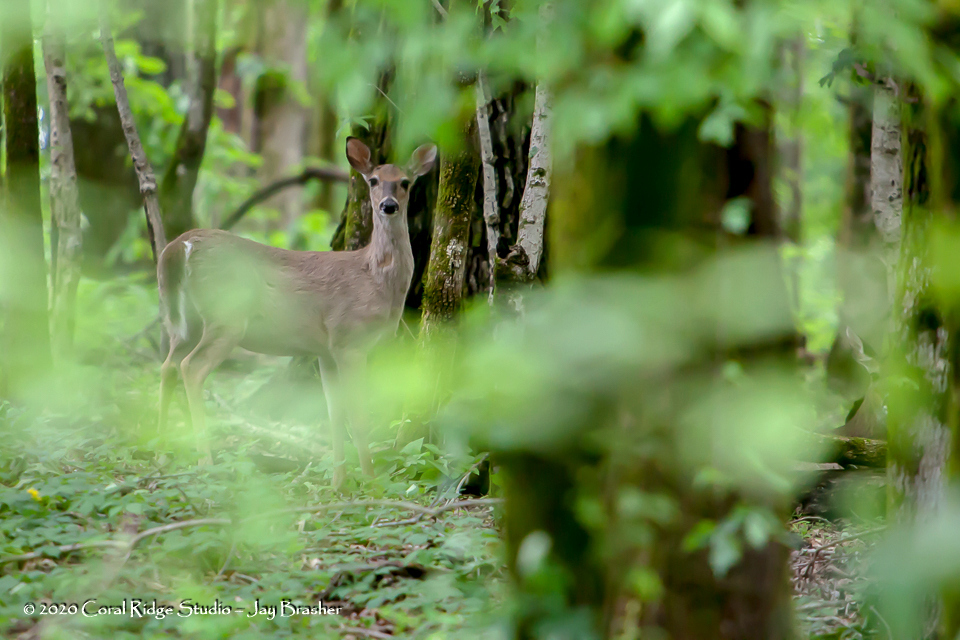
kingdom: Animalia
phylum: Chordata
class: Mammalia
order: Artiodactyla
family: Cervidae
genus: Odocoileus
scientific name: Odocoileus virginianus
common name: White-tailed deer
